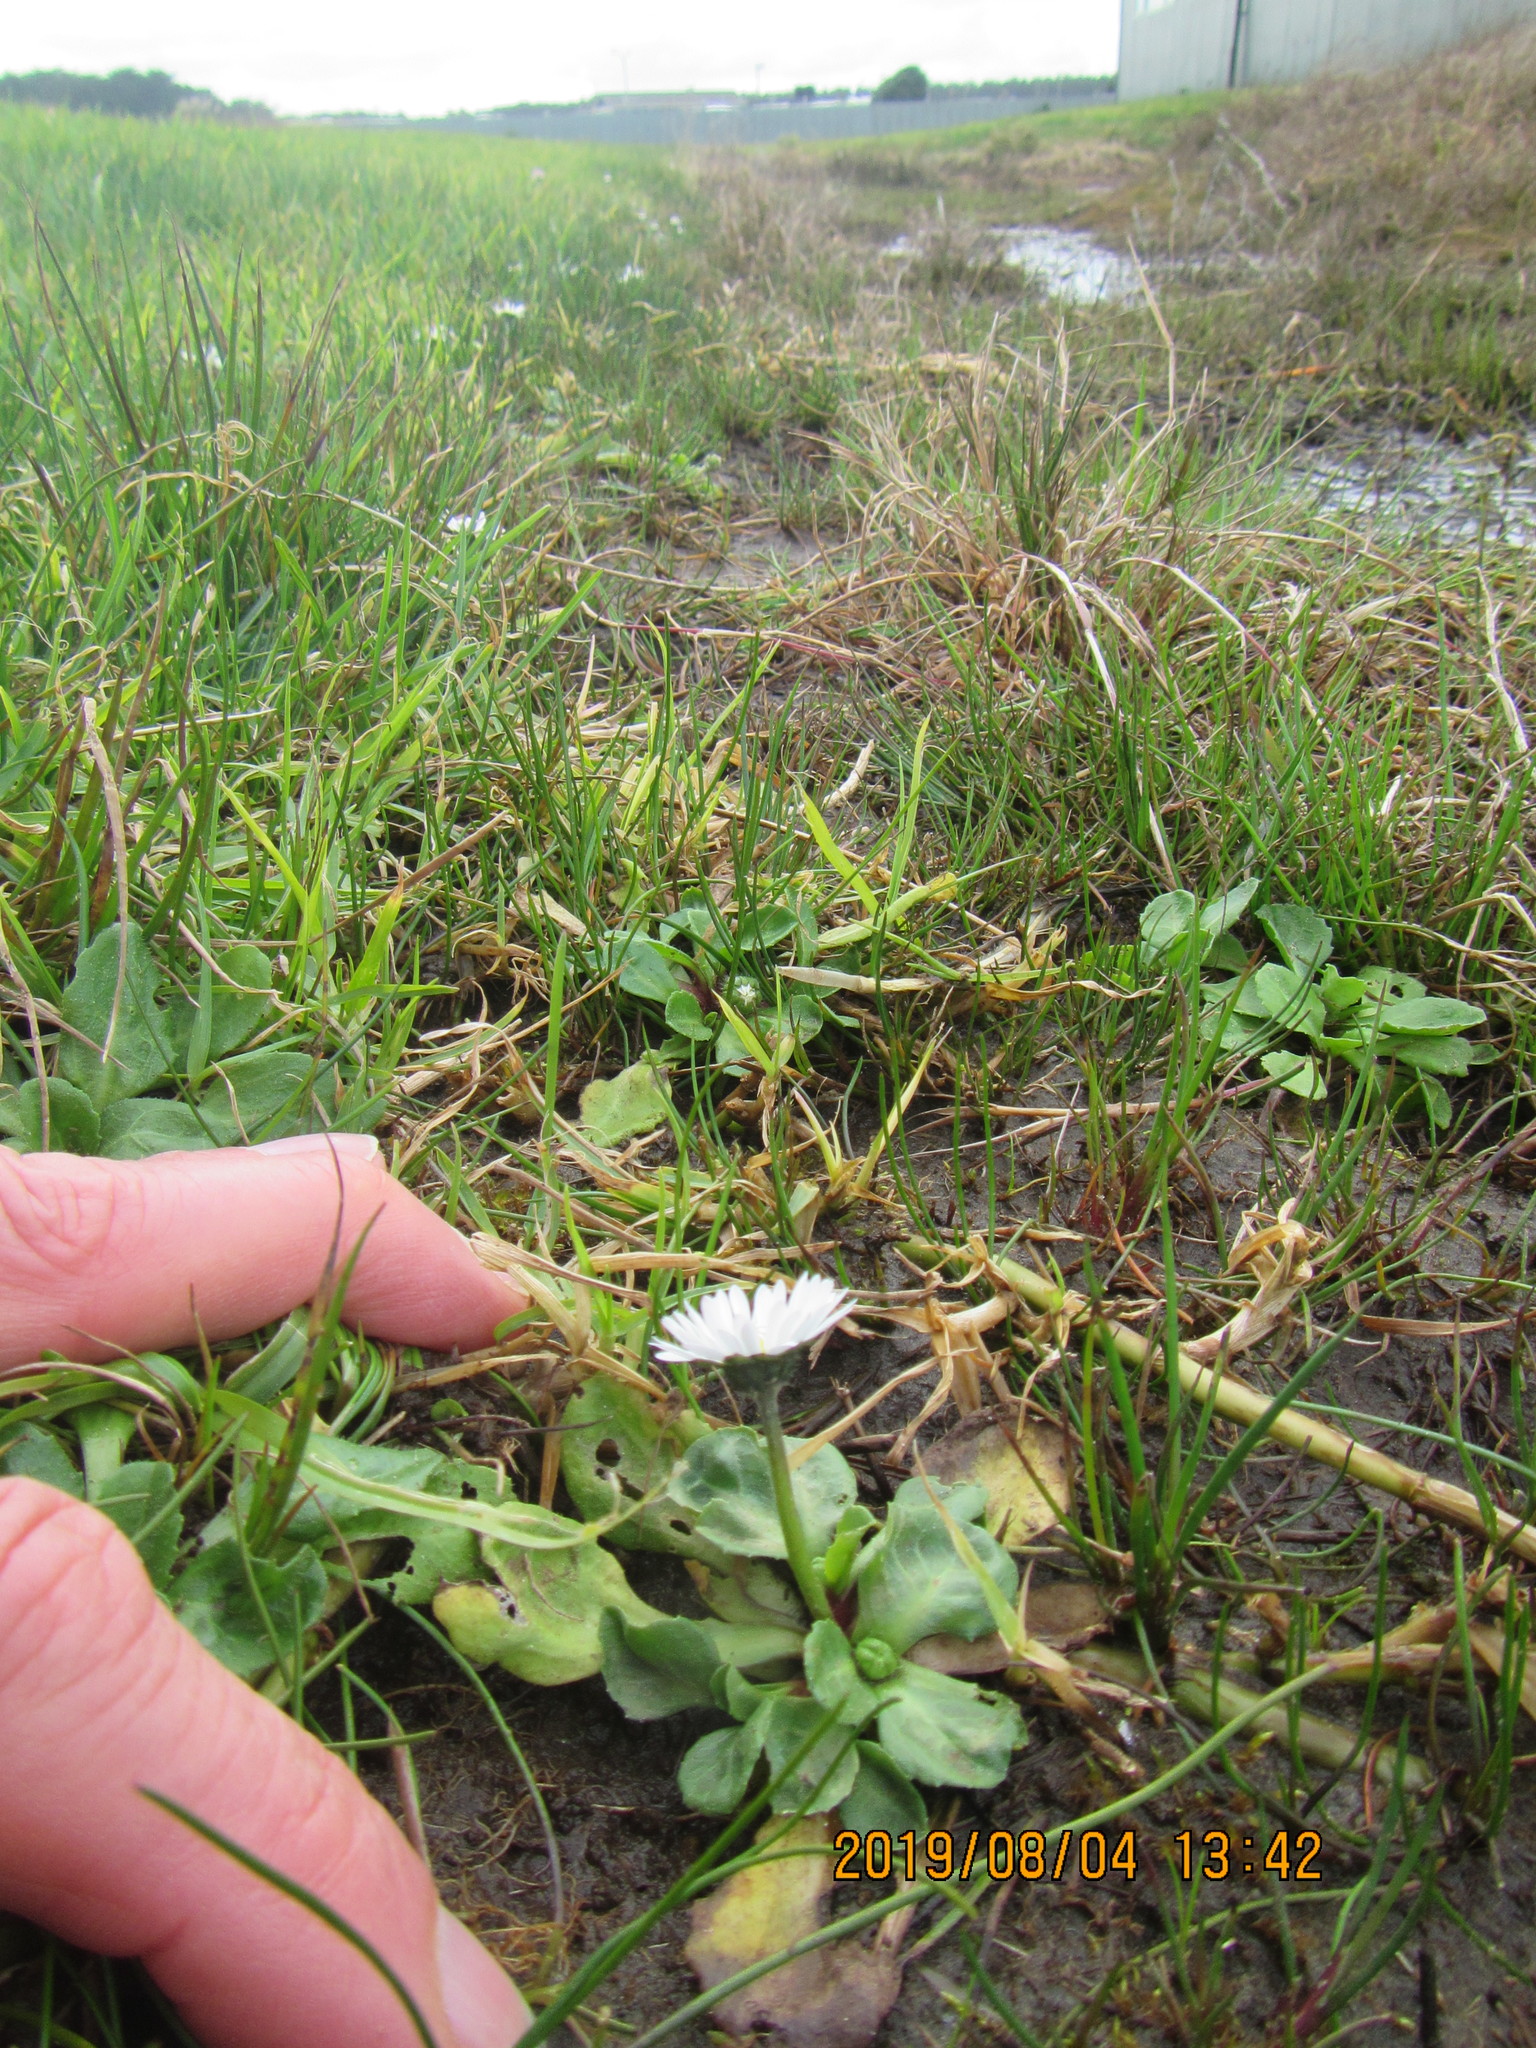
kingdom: Plantae
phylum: Tracheophyta
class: Magnoliopsida
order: Asterales
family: Asteraceae
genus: Bellis
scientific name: Bellis perennis
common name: Lawndaisy
